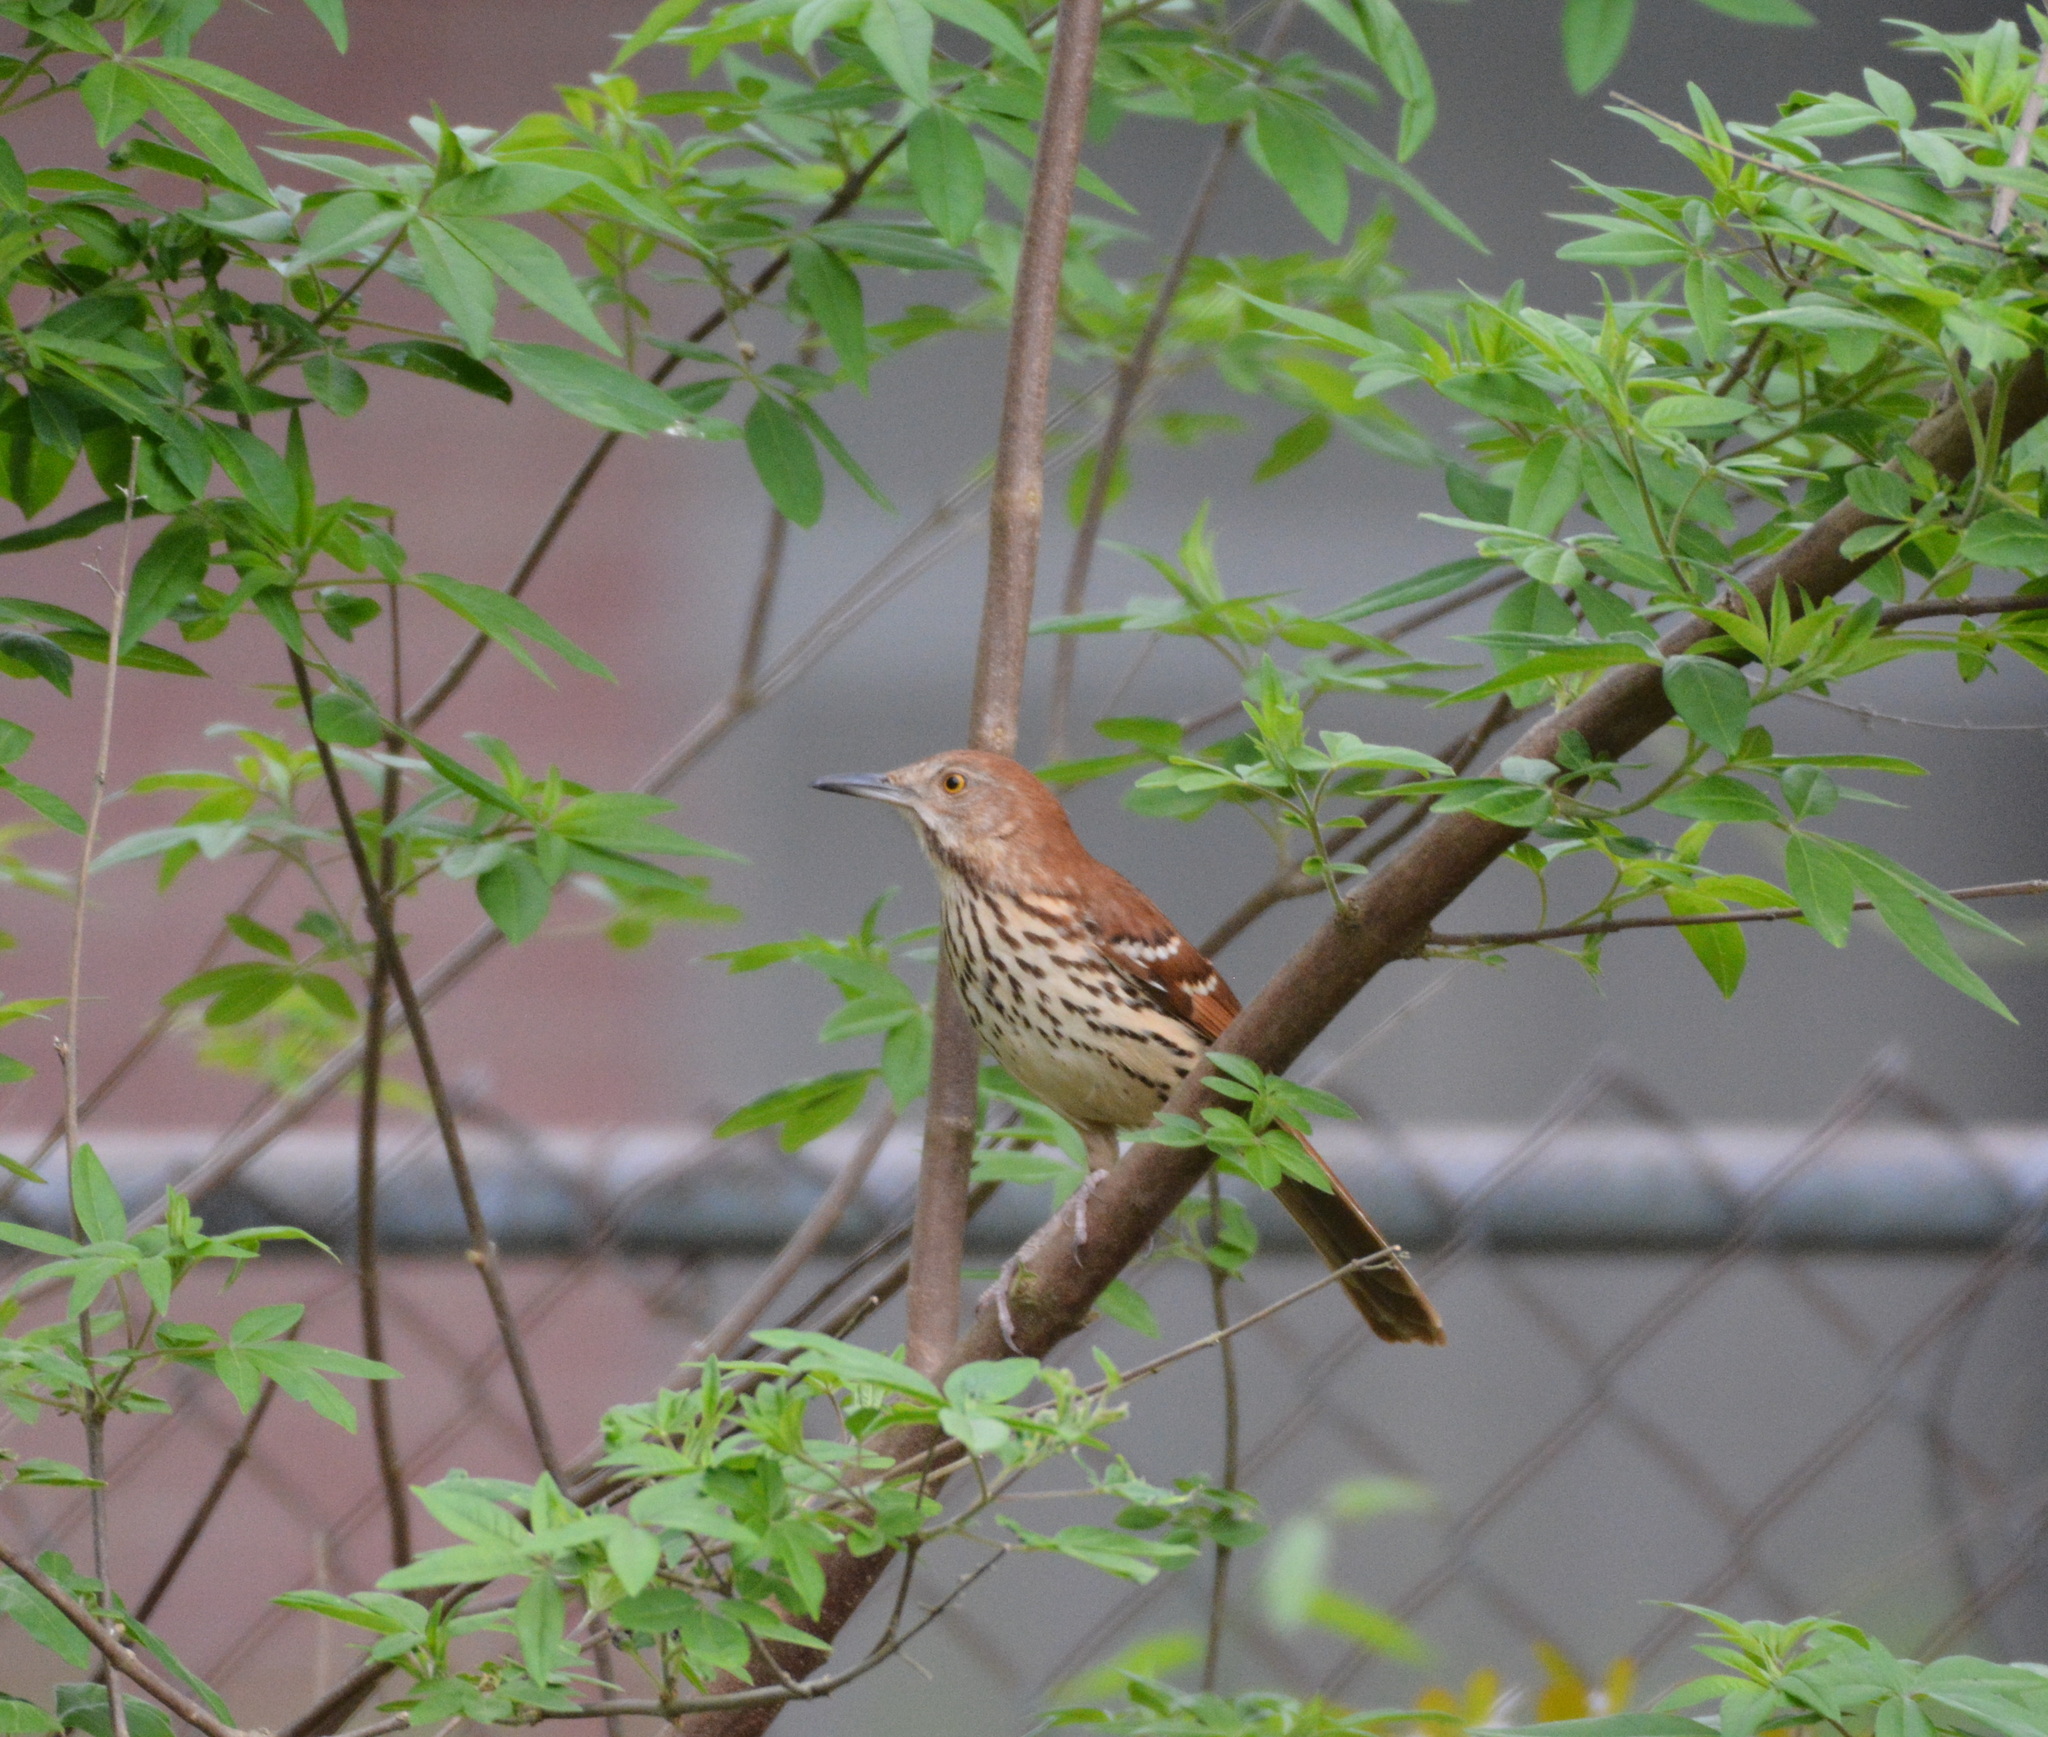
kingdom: Animalia
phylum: Chordata
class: Aves
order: Passeriformes
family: Mimidae
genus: Toxostoma
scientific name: Toxostoma rufum
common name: Brown thrasher
